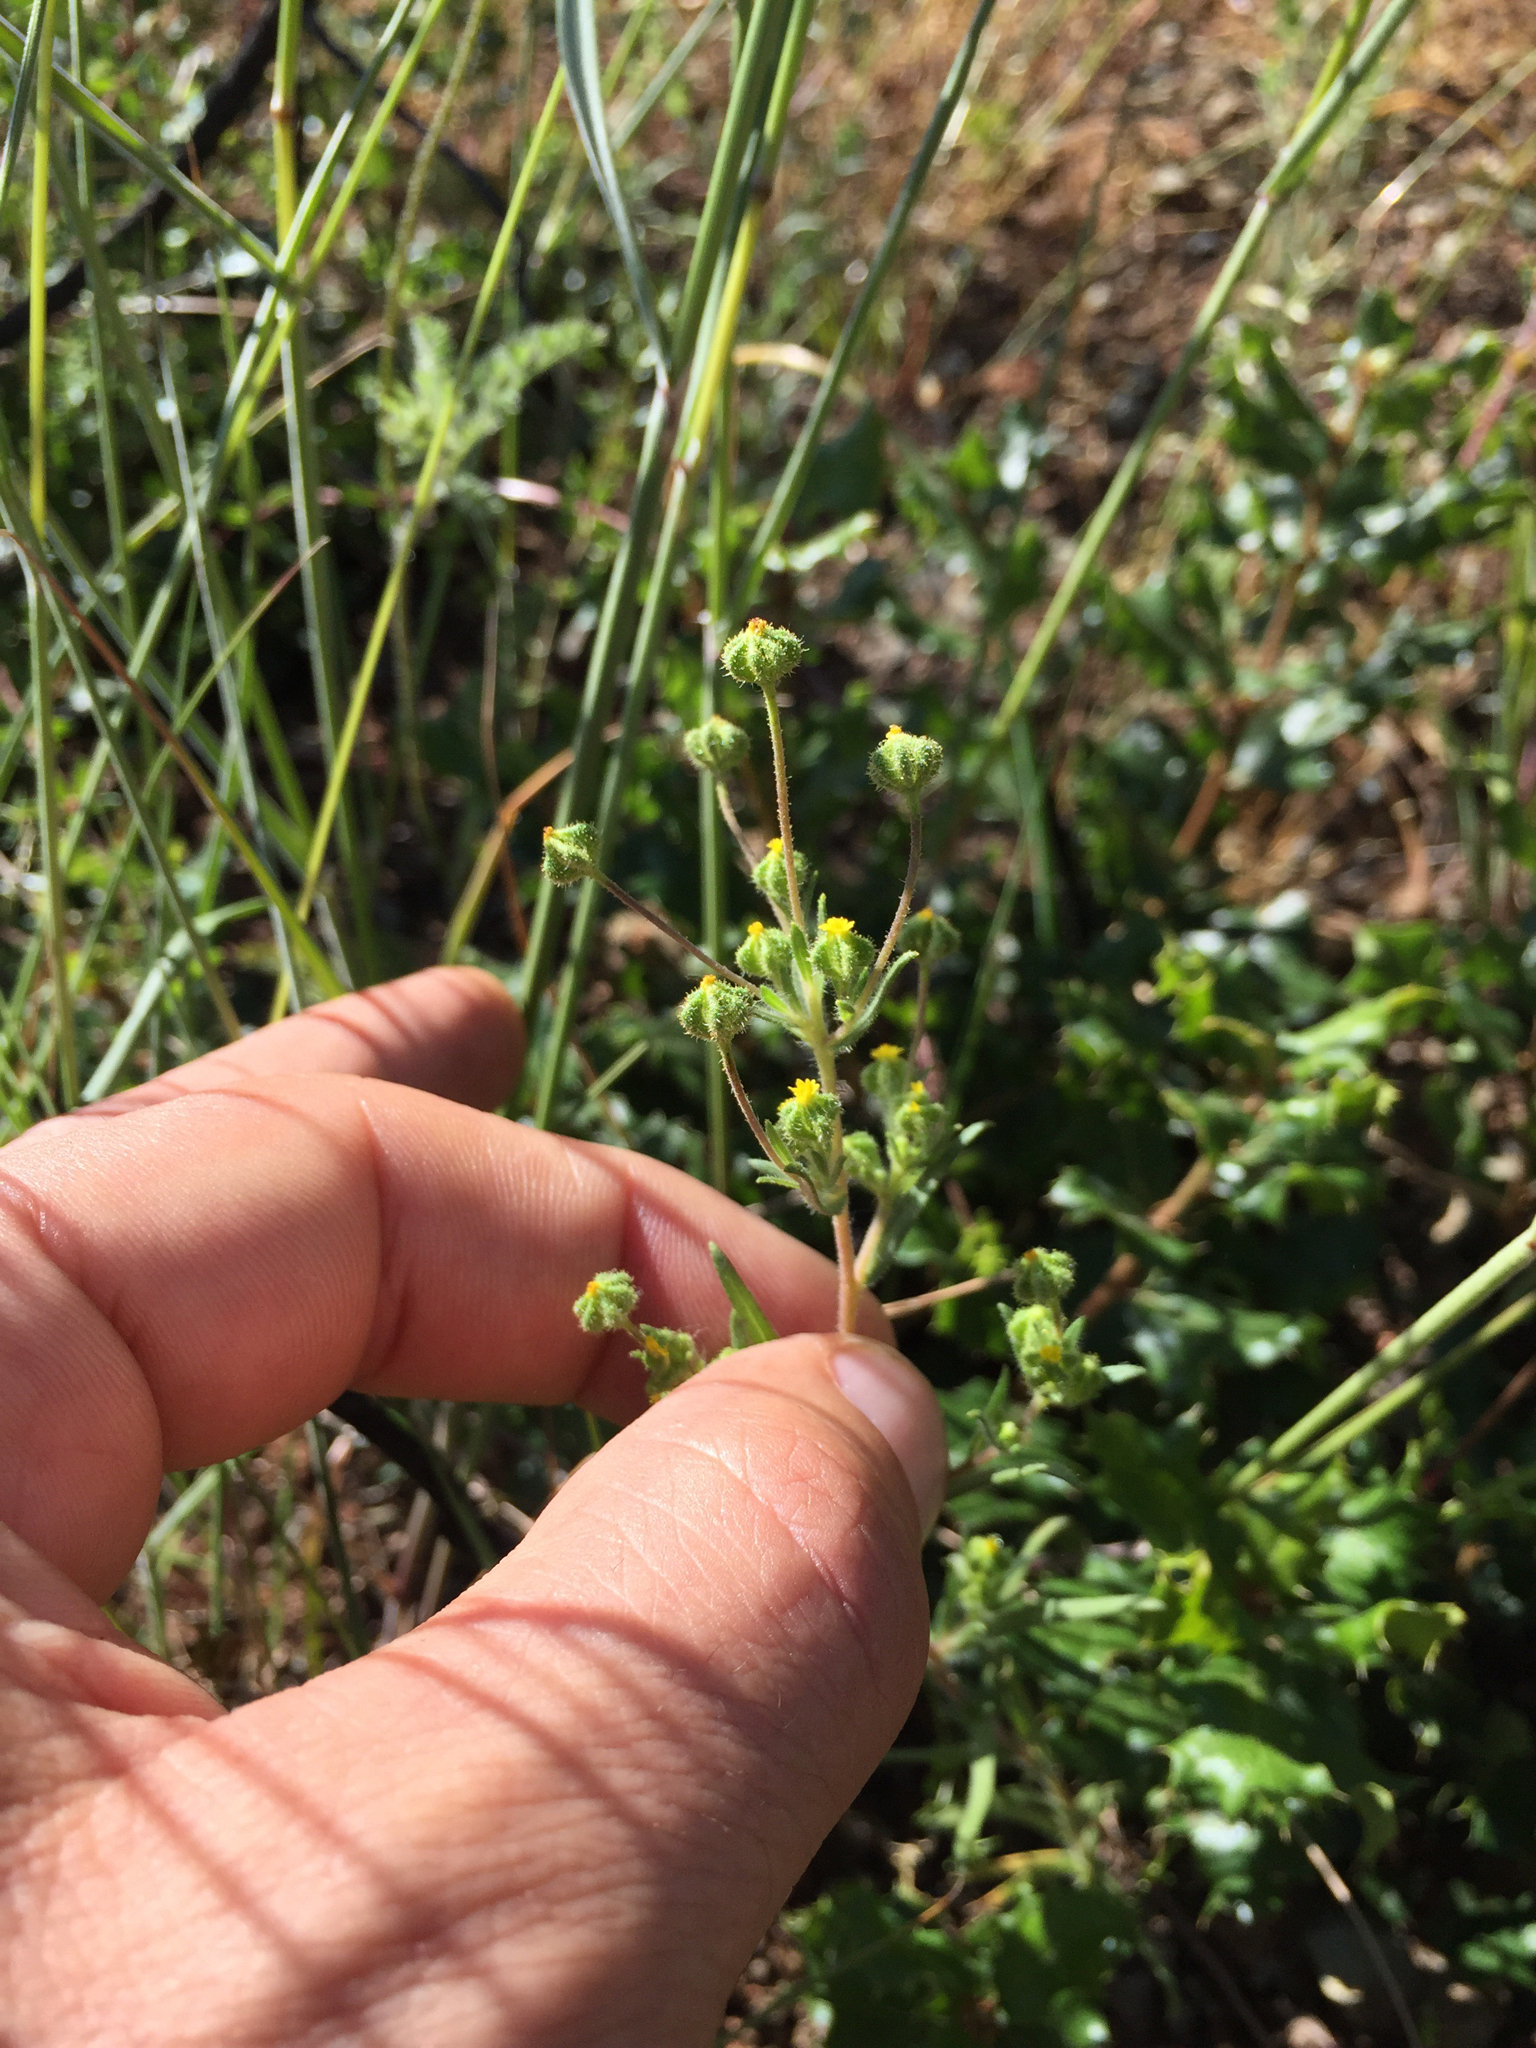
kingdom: Plantae
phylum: Tracheophyta
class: Magnoliopsida
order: Asterales
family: Asteraceae
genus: Madia
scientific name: Madia exigua
